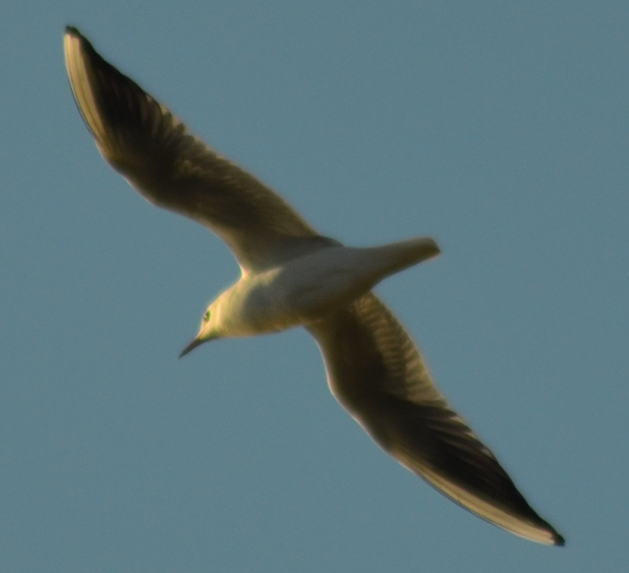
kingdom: Animalia
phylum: Chordata
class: Aves
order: Charadriiformes
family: Laridae
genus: Chroicocephalus
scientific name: Chroicocephalus ridibundus
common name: Black-headed gull
